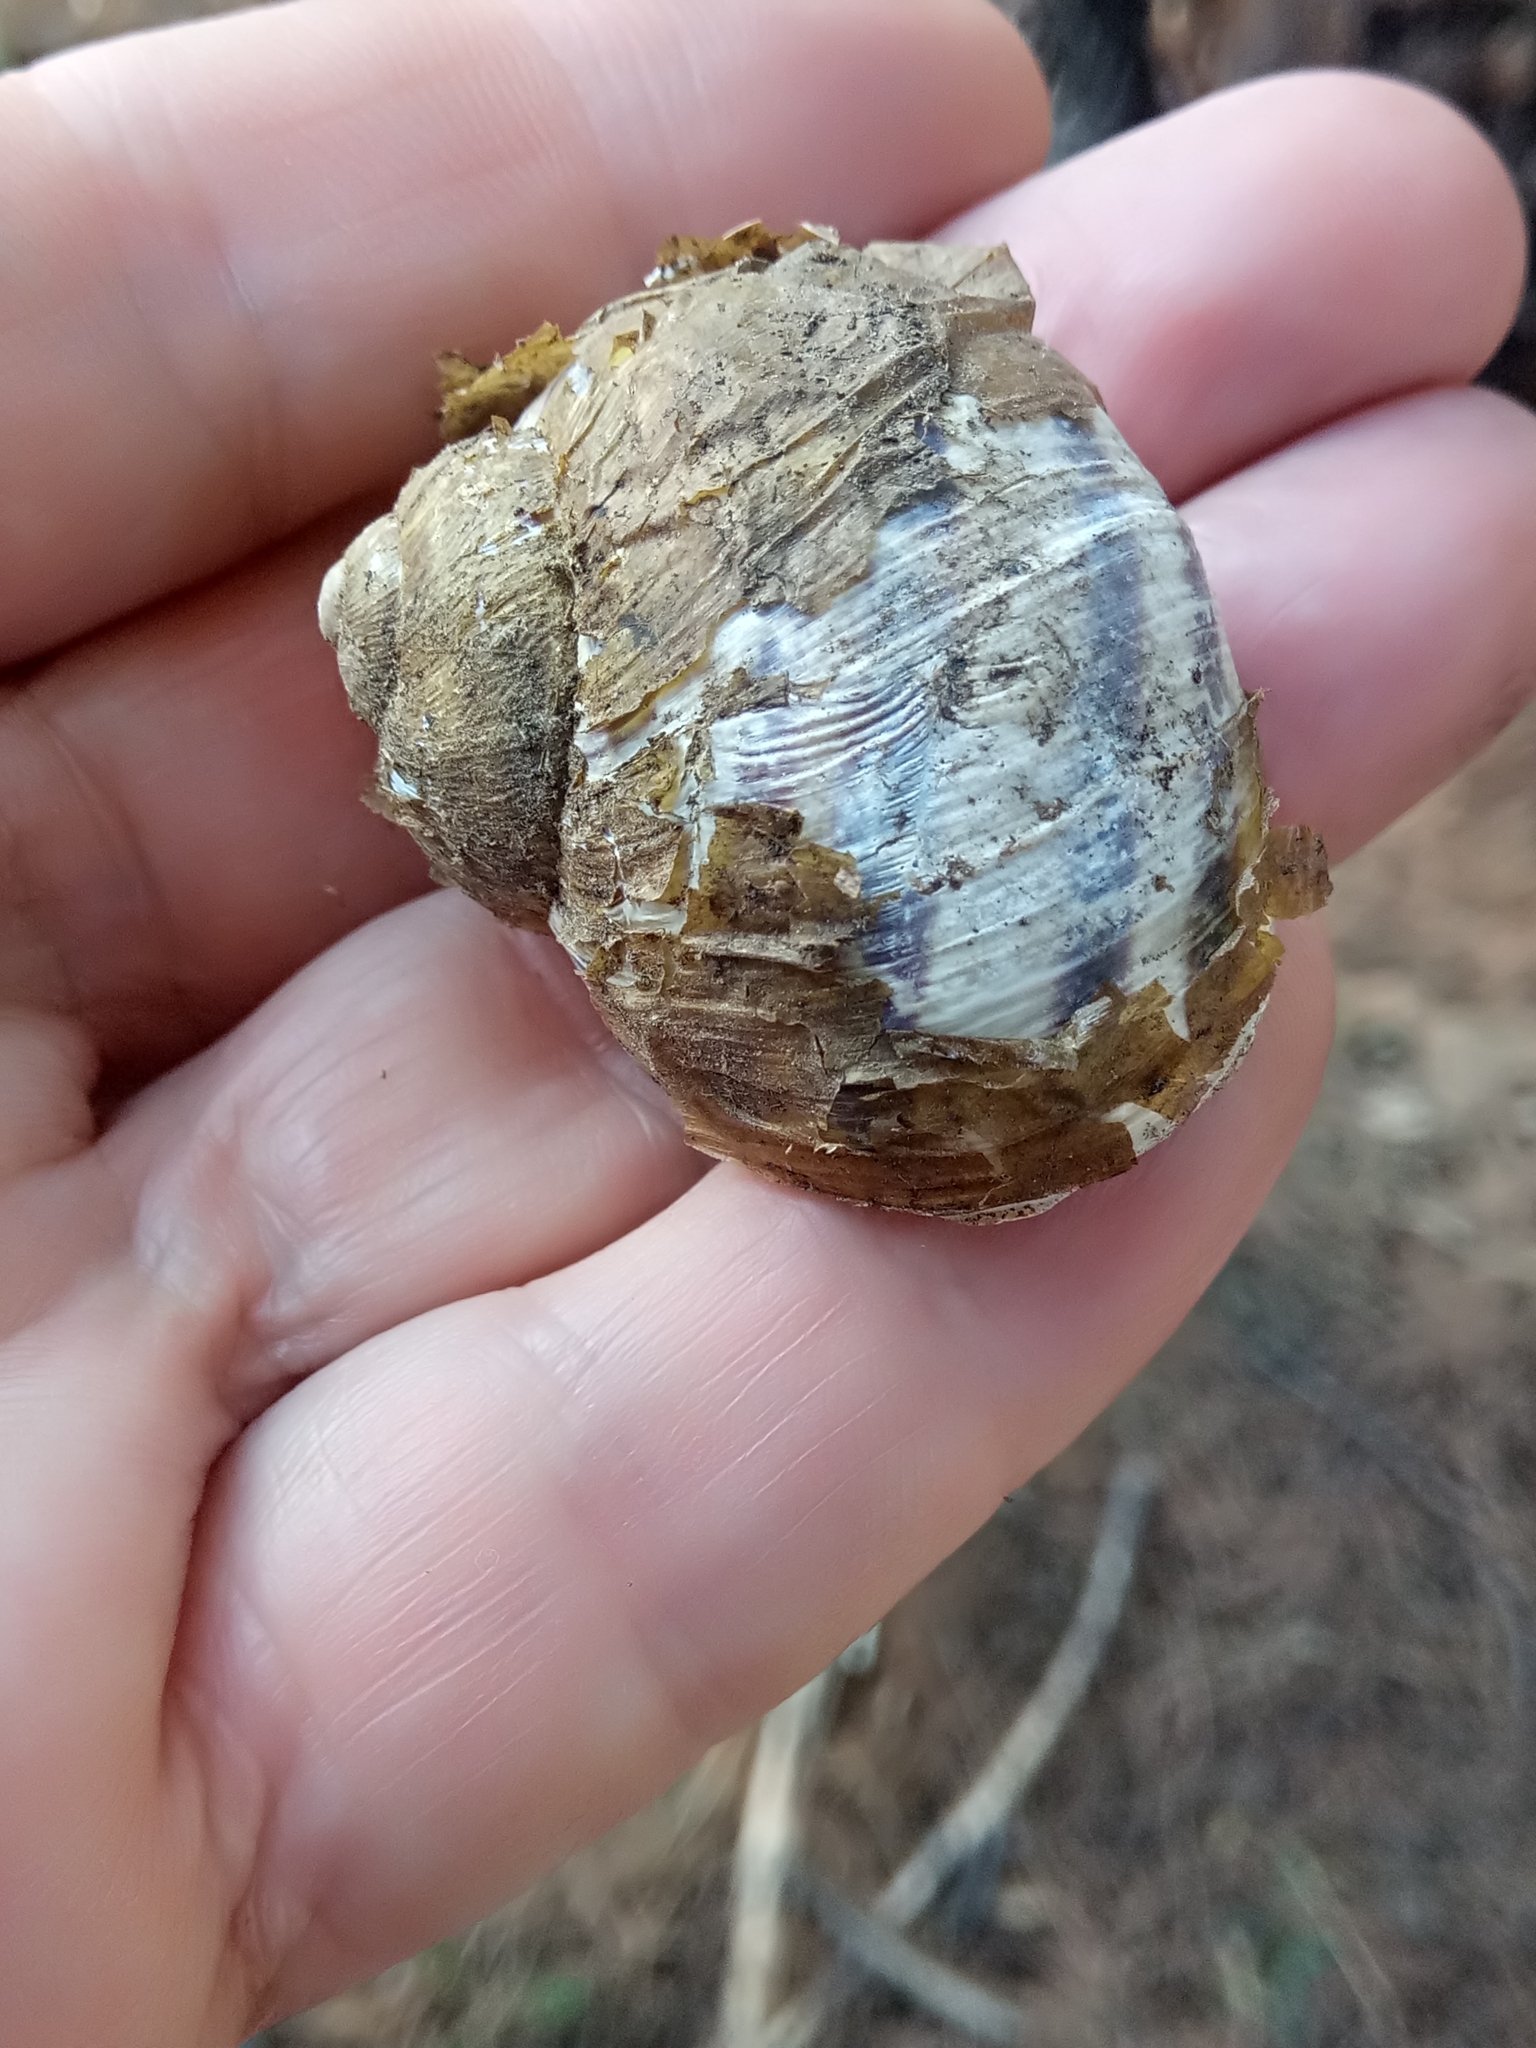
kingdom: Animalia
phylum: Mollusca
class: Gastropoda
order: Stylommatophora
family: Helicidae
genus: Cornu
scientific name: Cornu aspersum
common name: Brown garden snail
